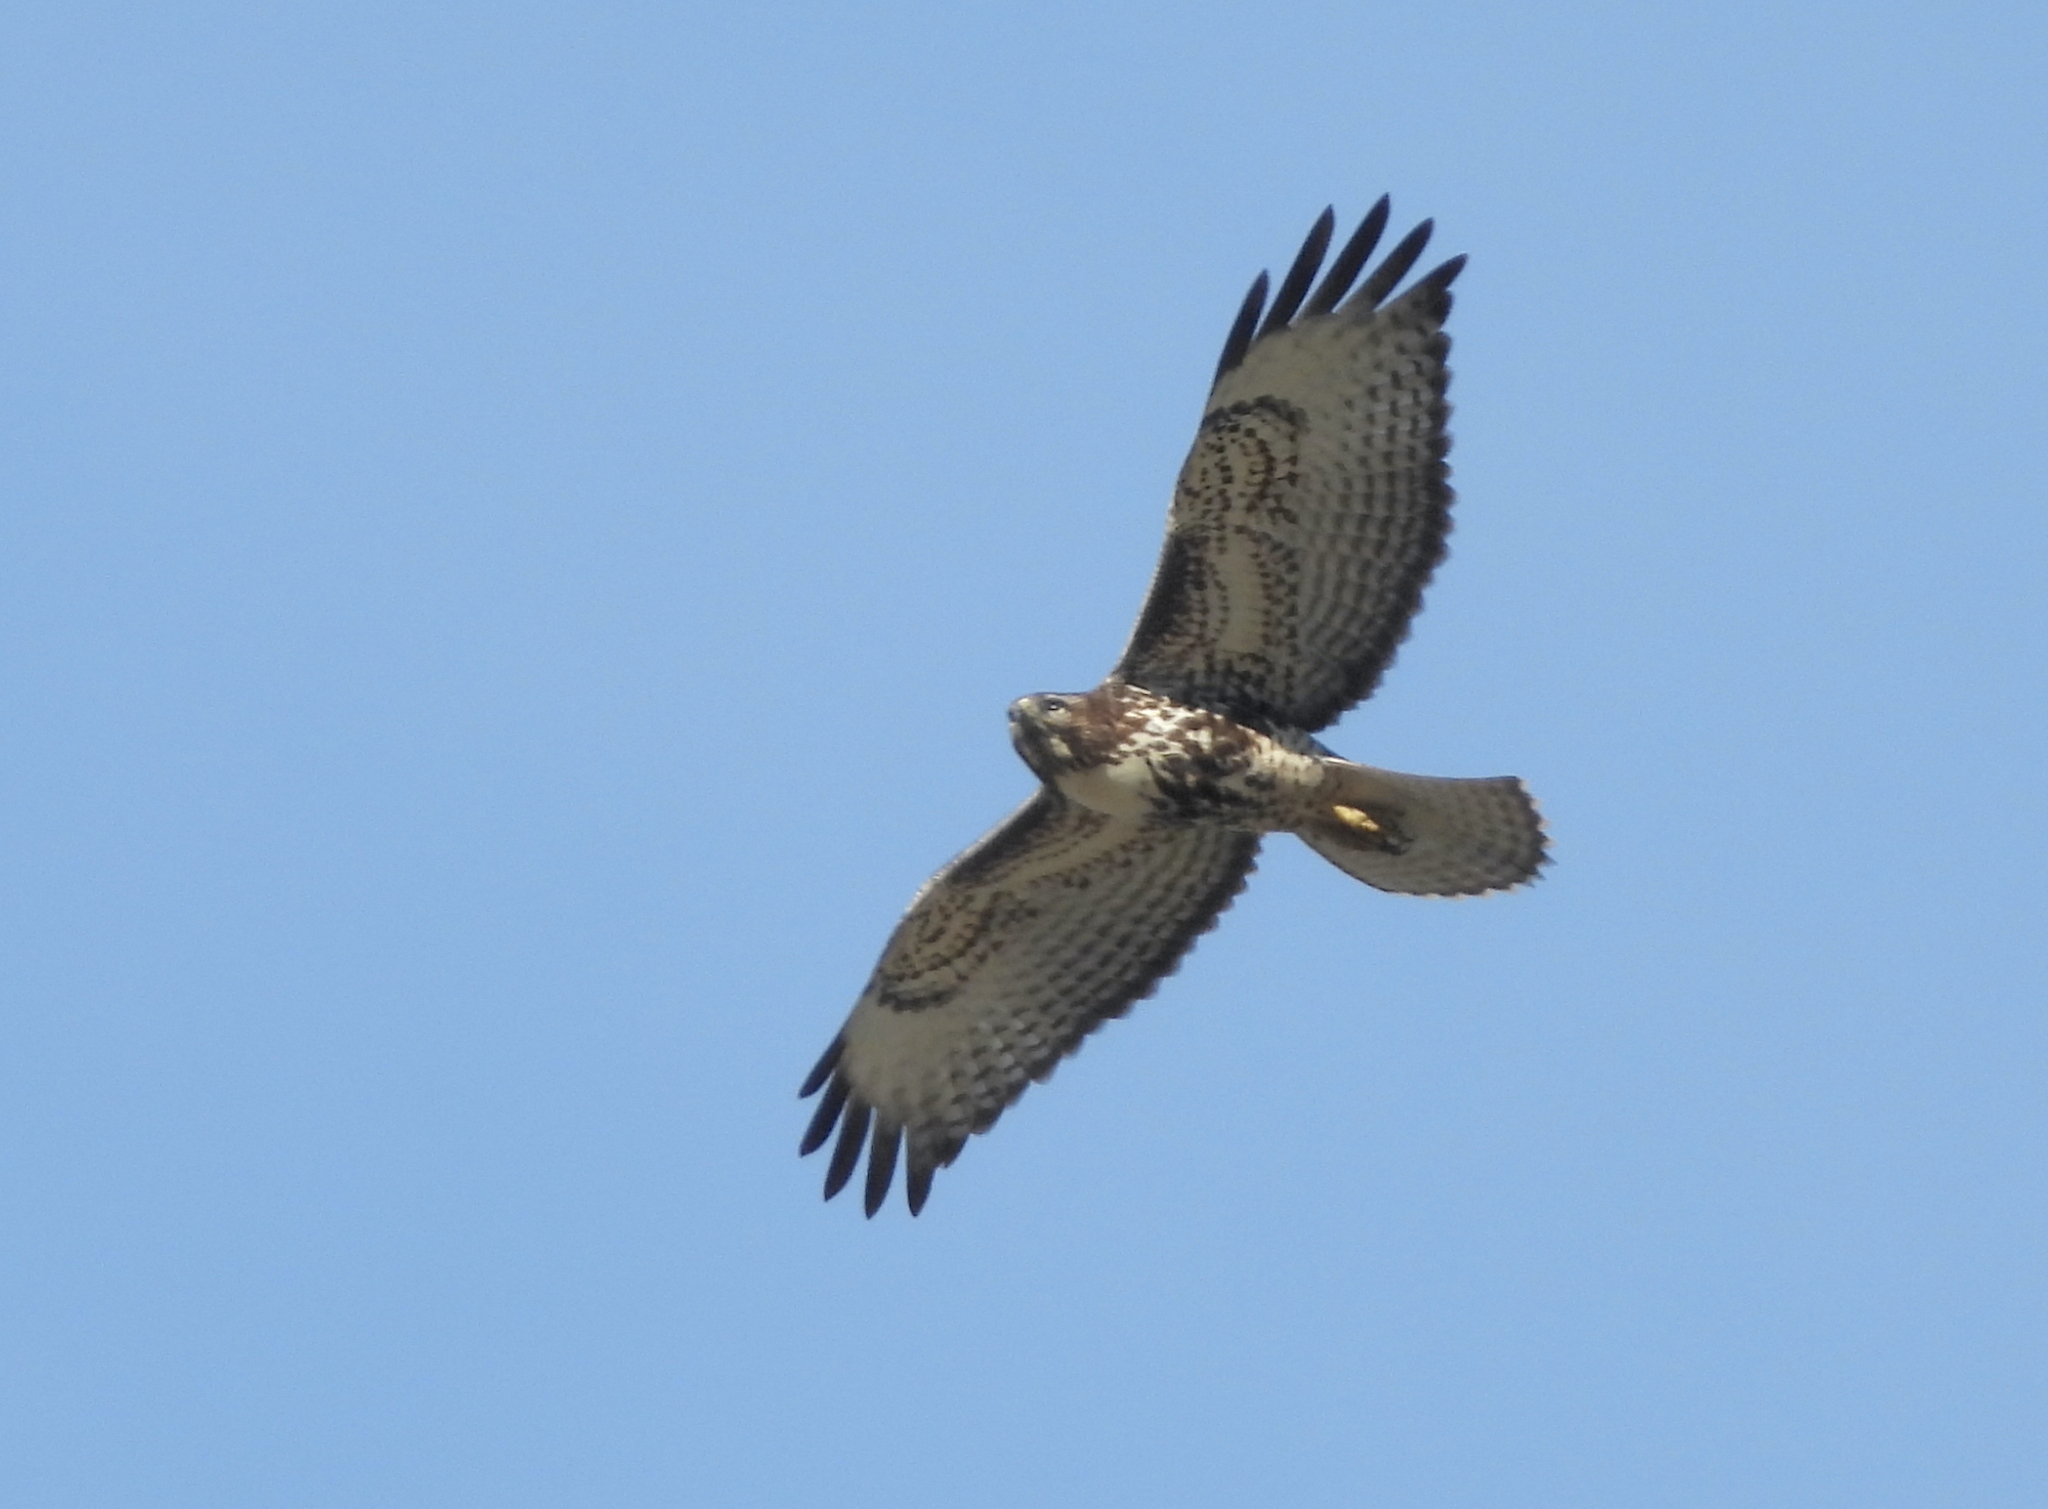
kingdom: Animalia
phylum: Chordata
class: Aves
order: Accipitriformes
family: Accipitridae
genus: Buteo
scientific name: Buteo jamaicensis
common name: Red-tailed hawk
